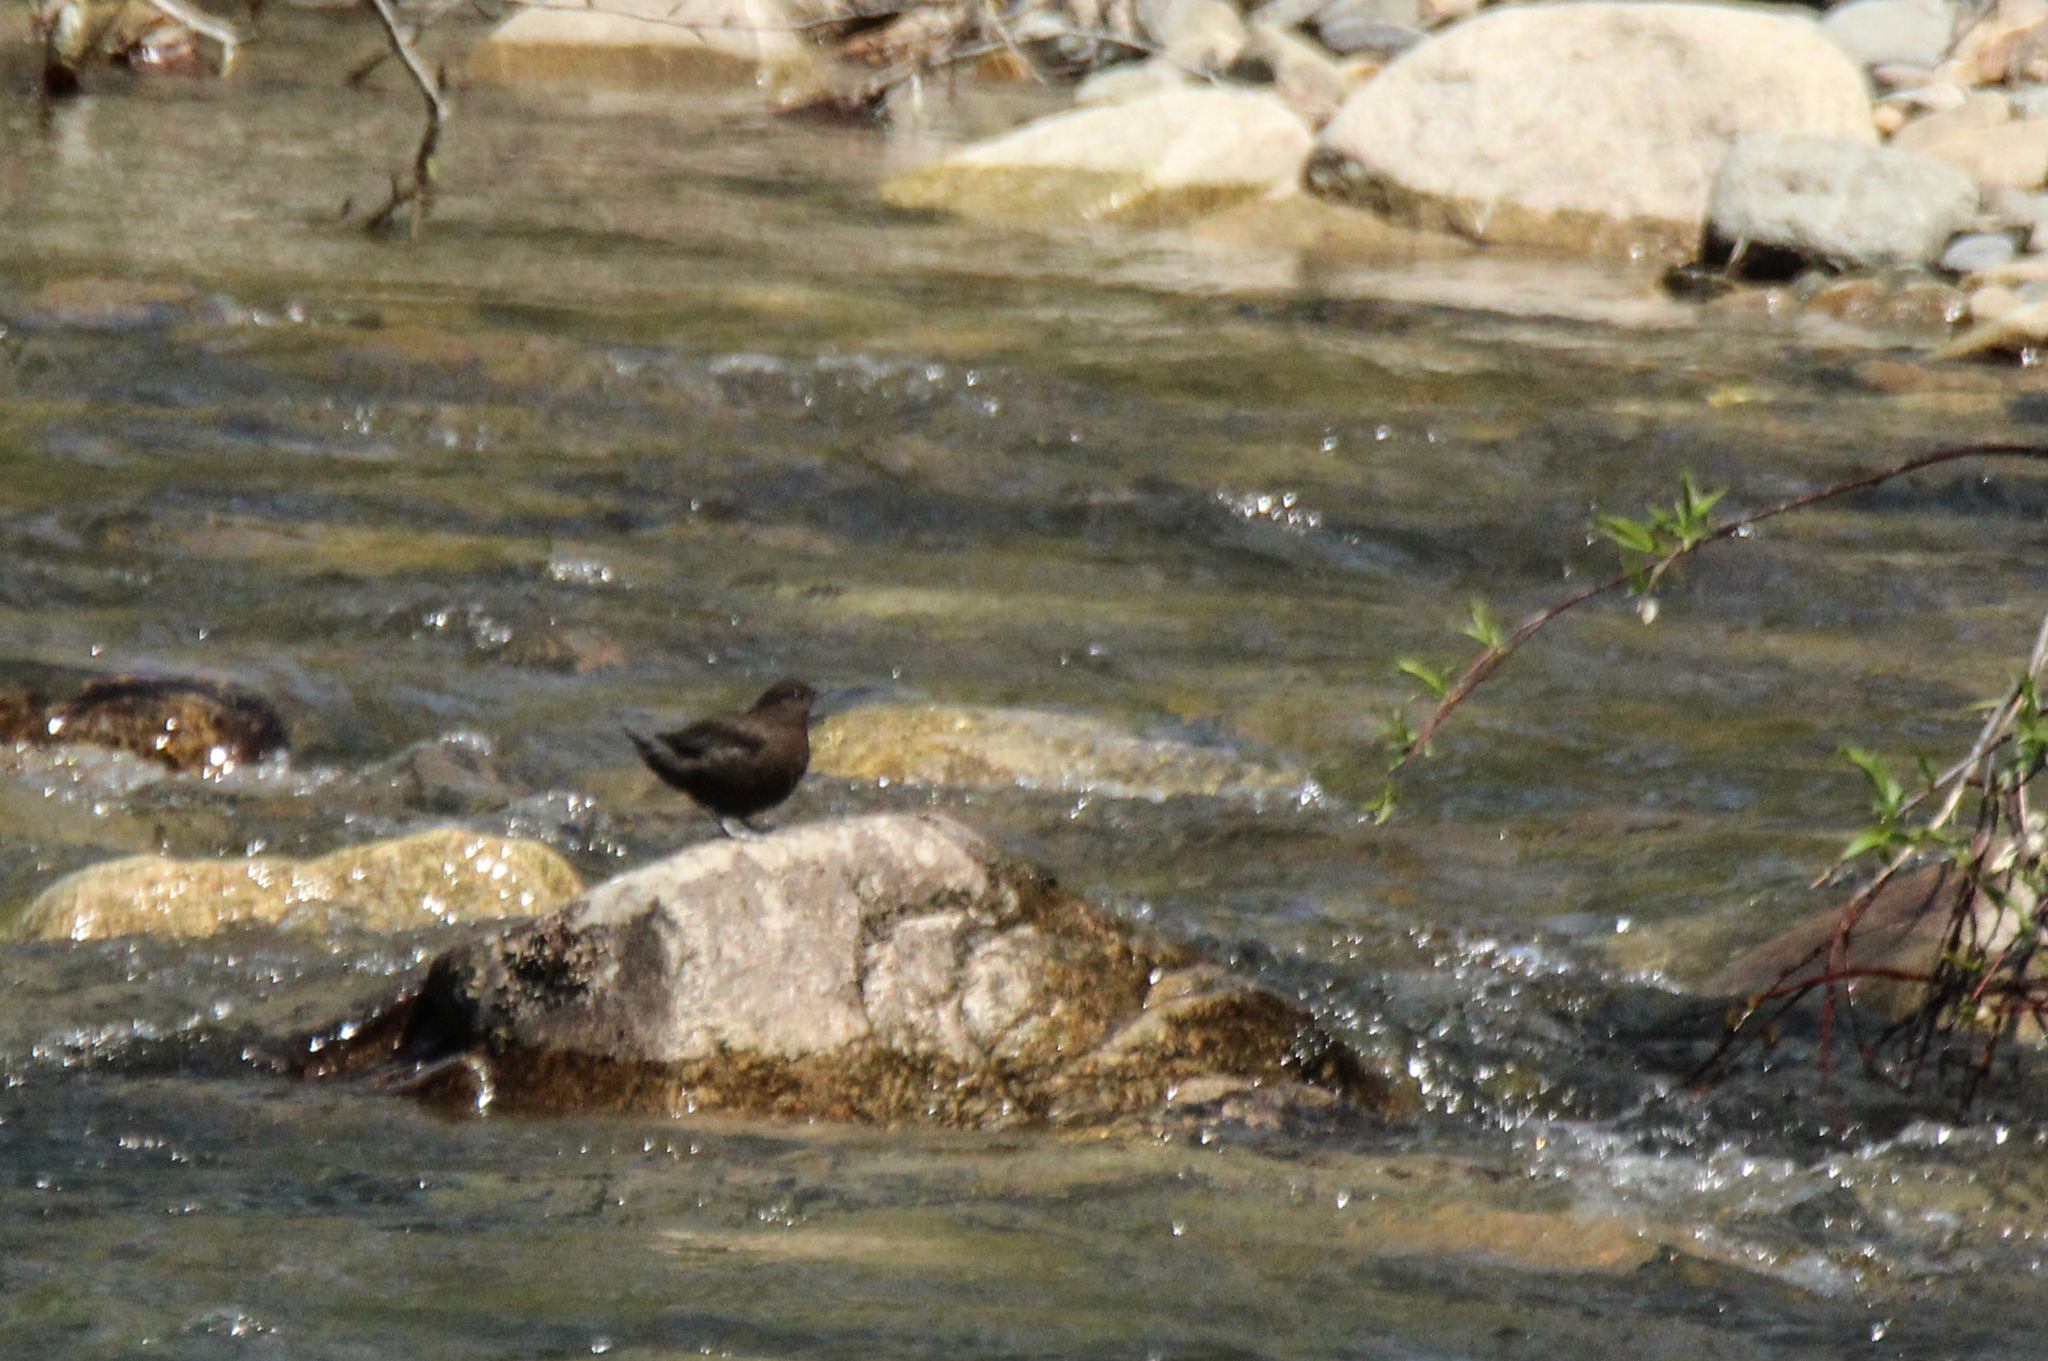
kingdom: Animalia
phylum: Chordata
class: Aves
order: Passeriformes
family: Cinclidae
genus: Cinclus
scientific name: Cinclus pallasii
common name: Brown dipper
